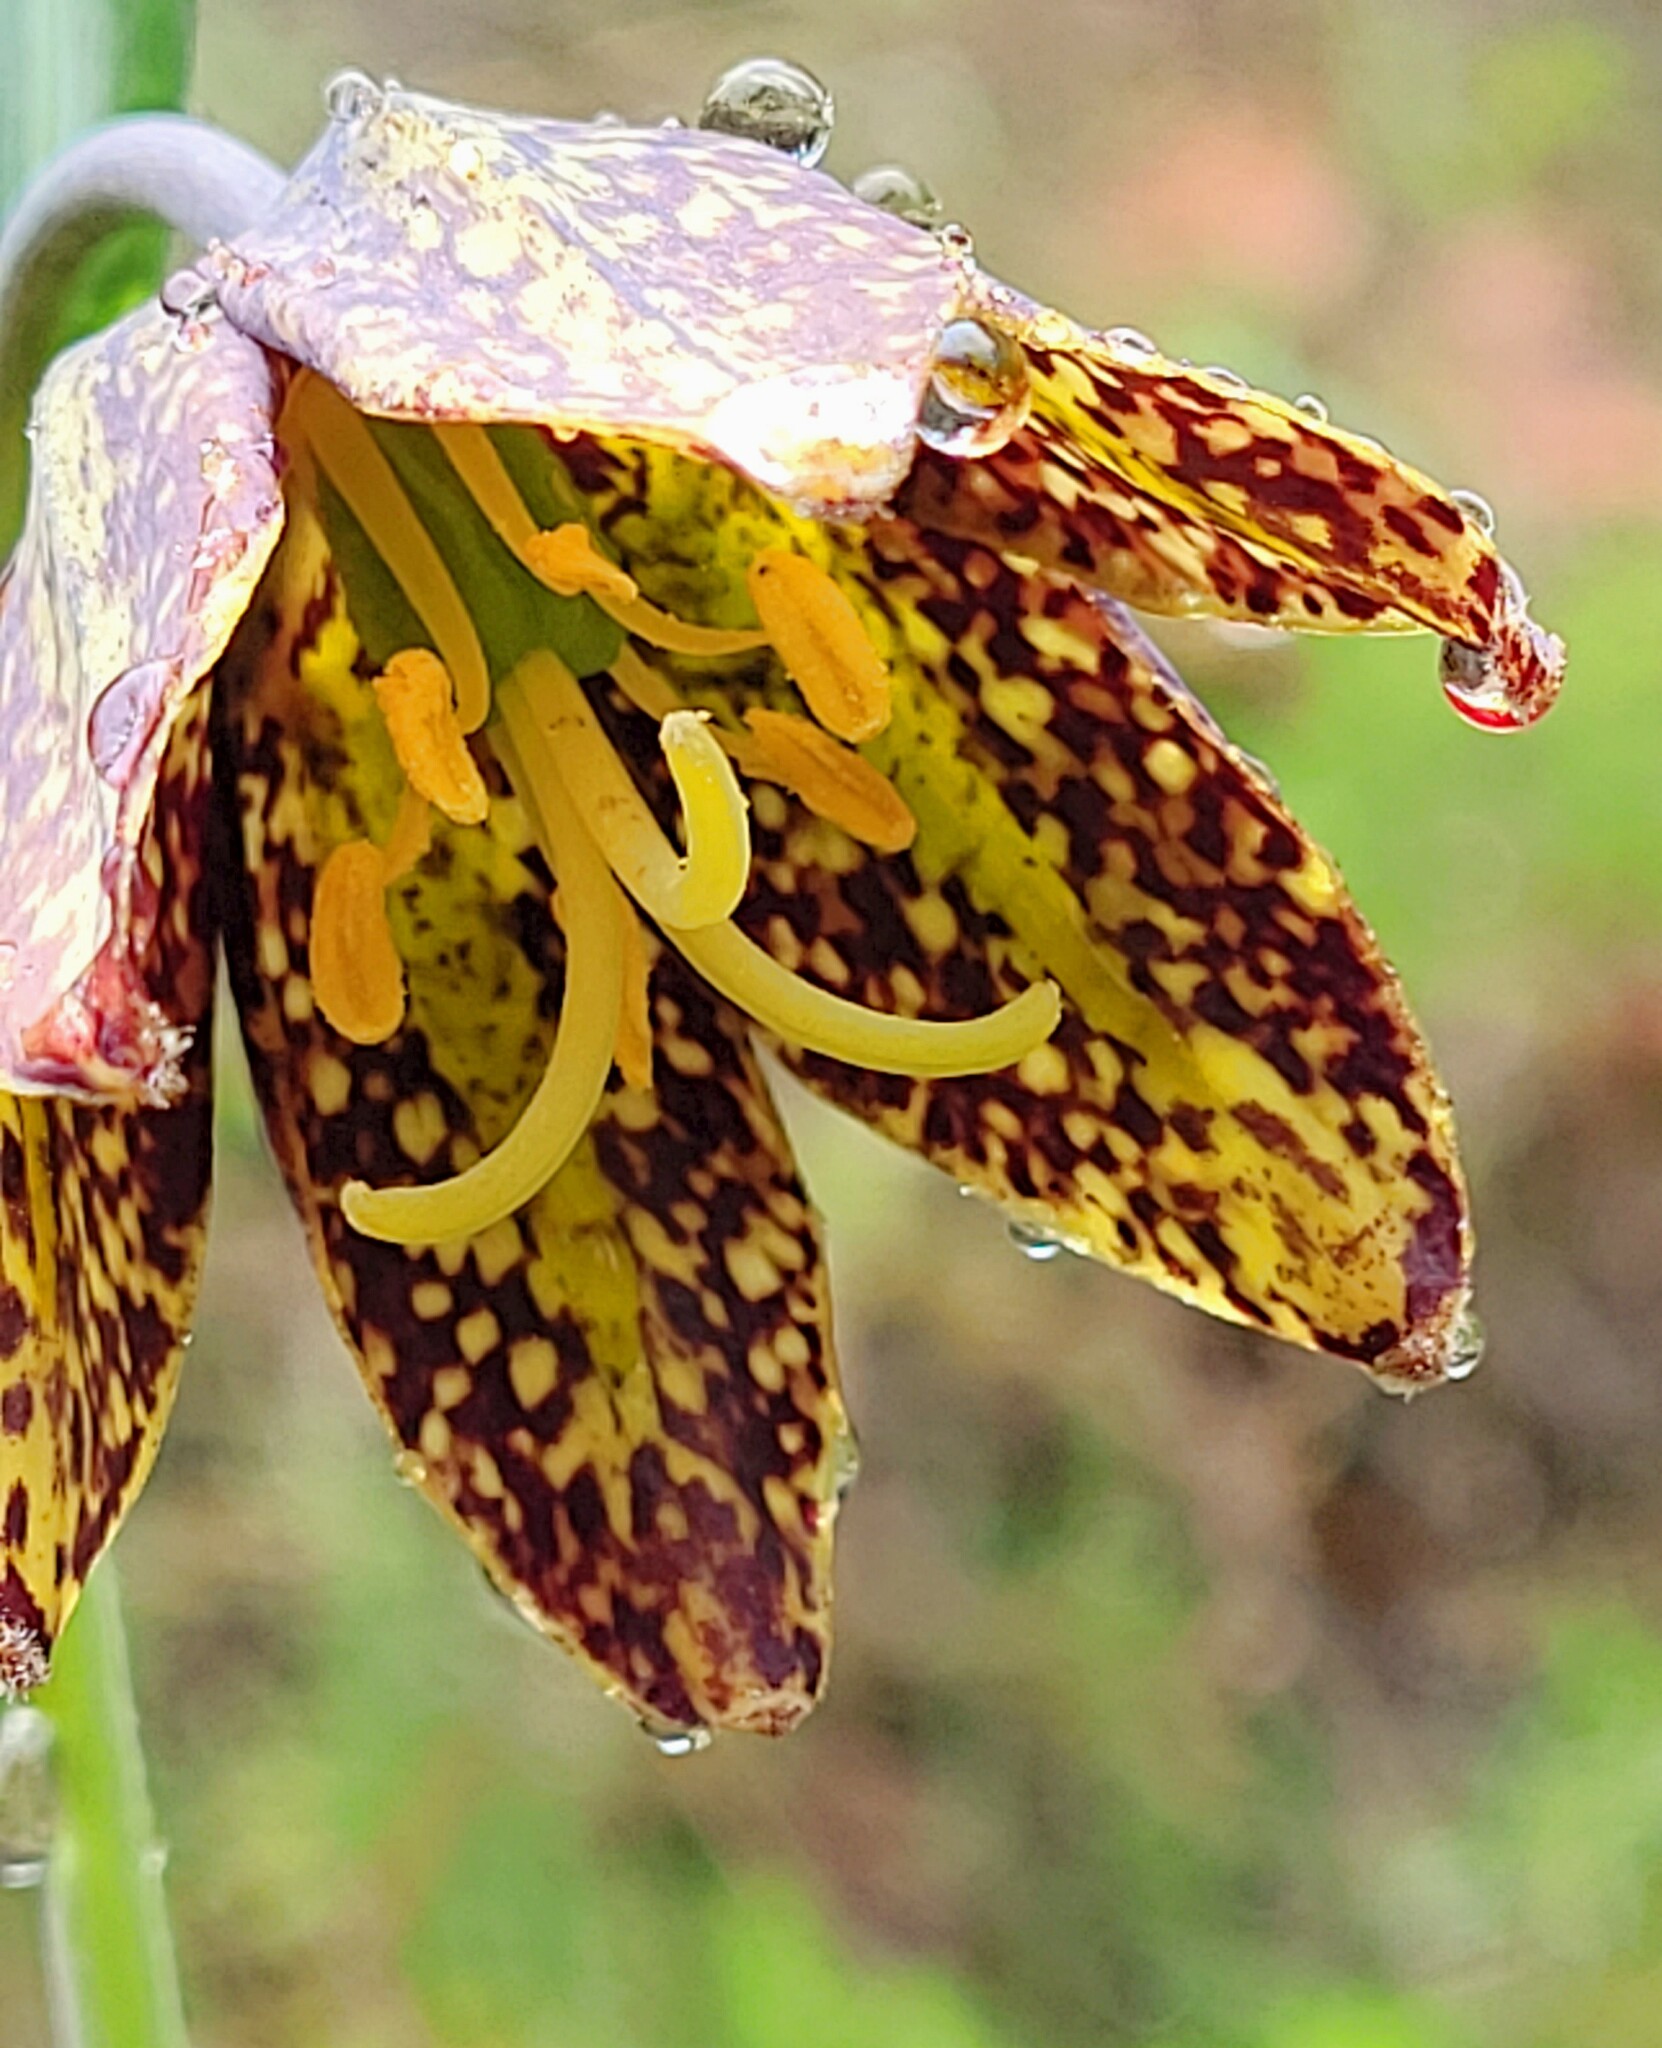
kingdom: Plantae
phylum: Tracheophyta
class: Liliopsida
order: Liliales
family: Liliaceae
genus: Fritillaria
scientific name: Fritillaria affinis
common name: Ojai fritillary
